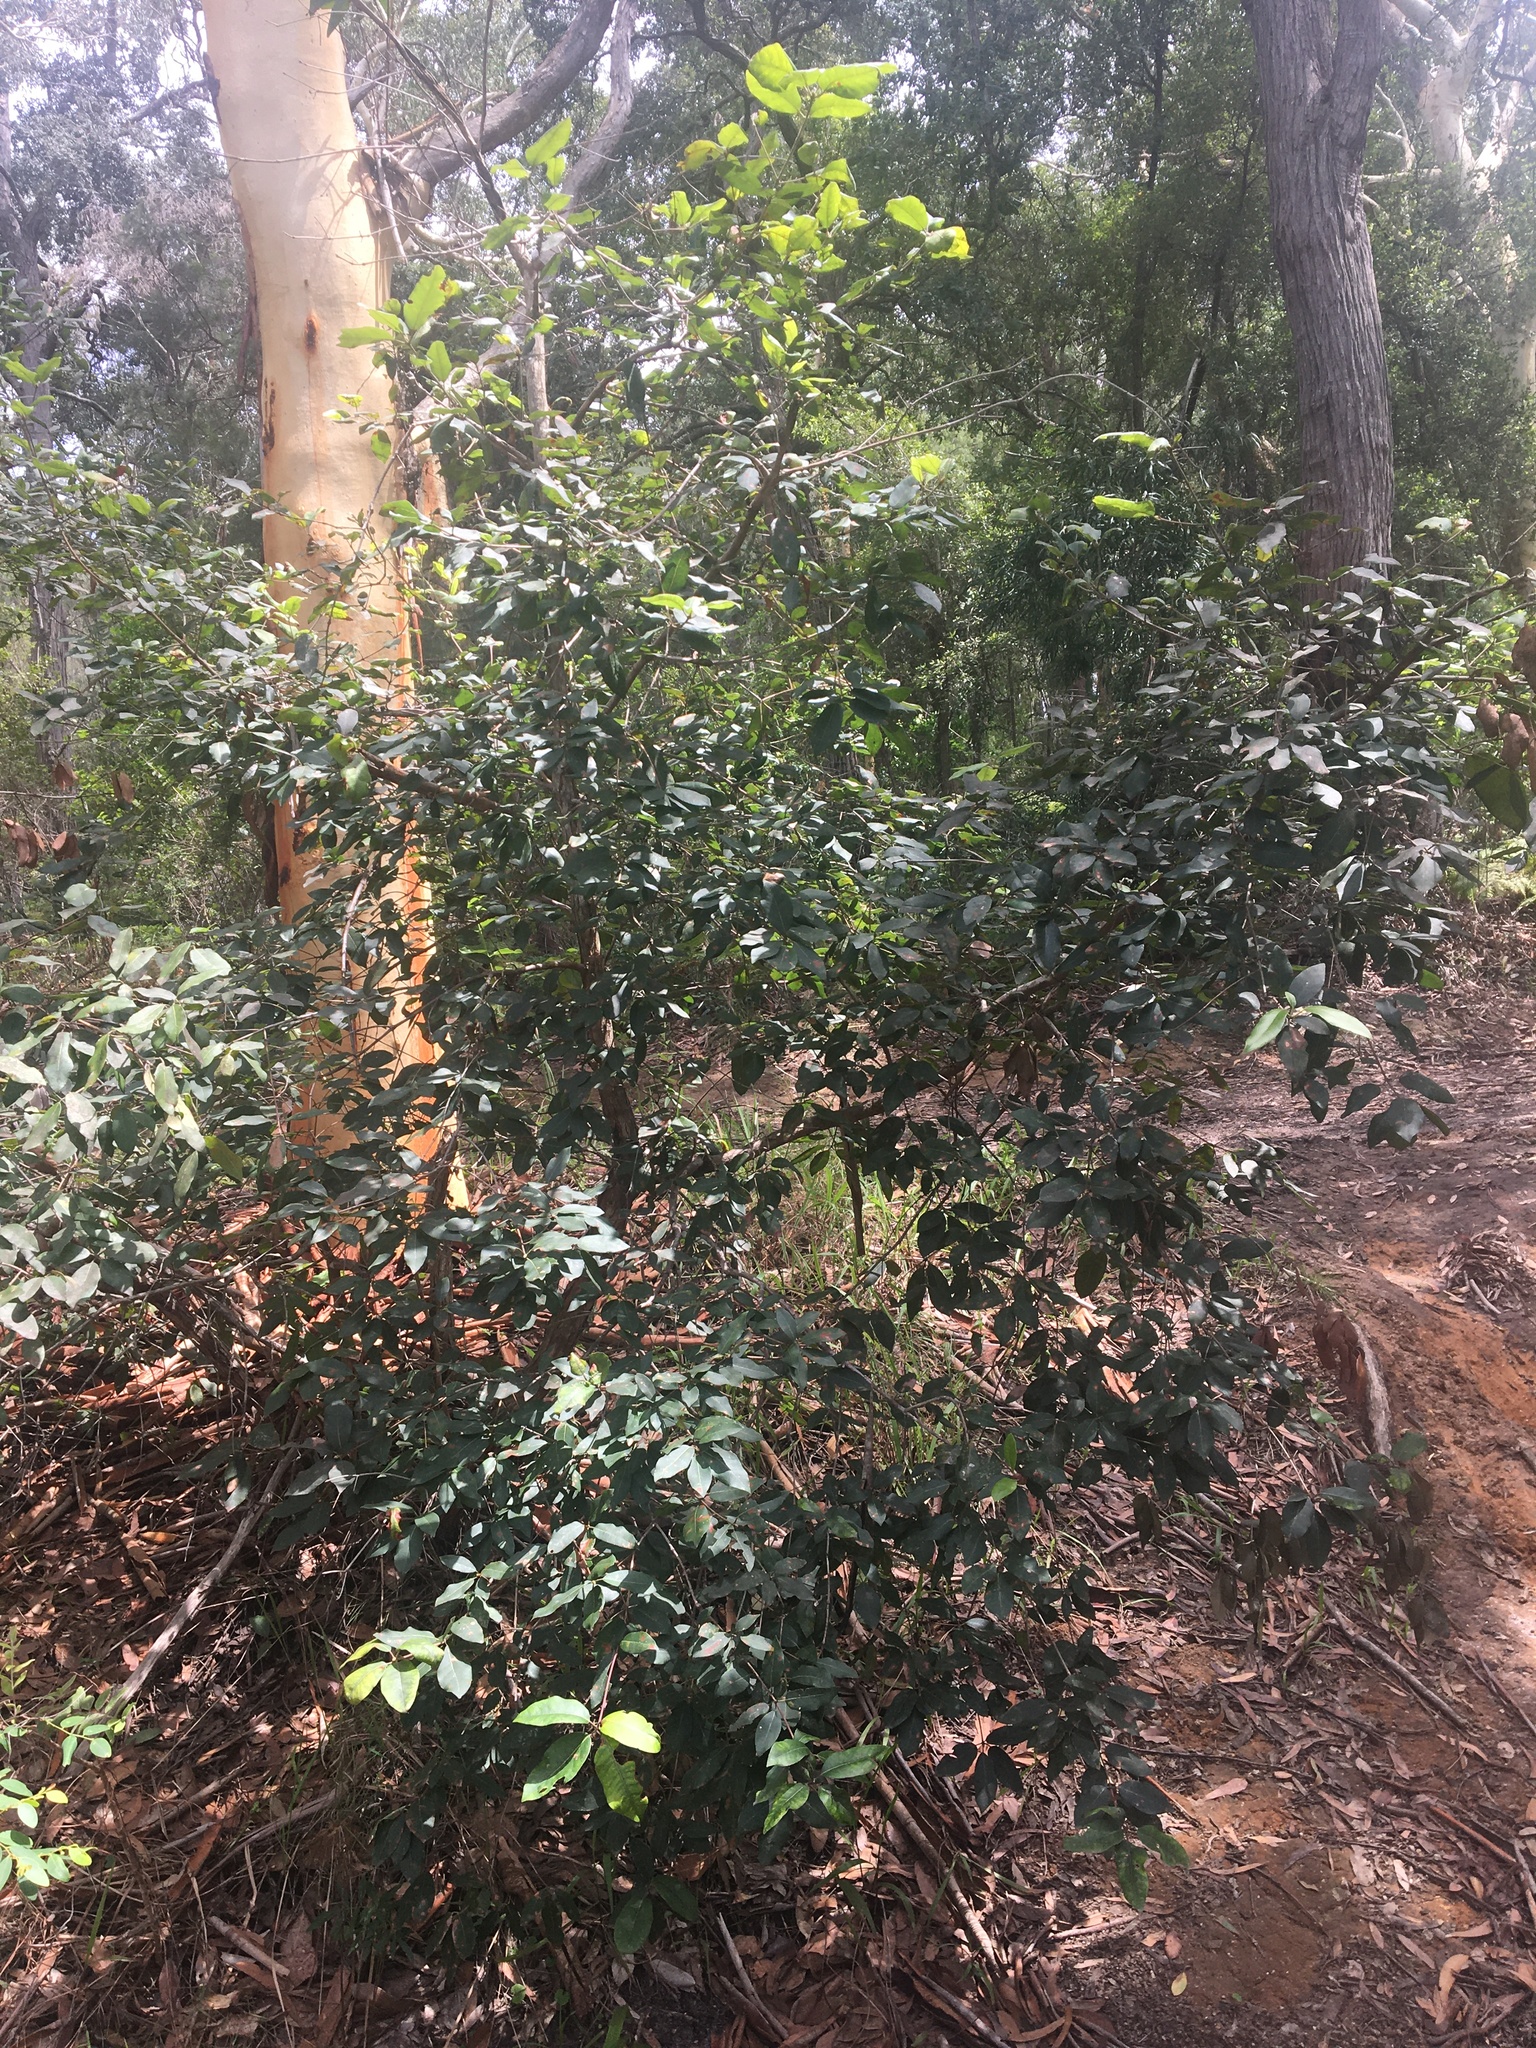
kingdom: Plantae
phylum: Tracheophyta
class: Magnoliopsida
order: Myrtales
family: Myrtaceae
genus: Syncarpia
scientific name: Syncarpia glomulifera
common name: Turpentine tree
